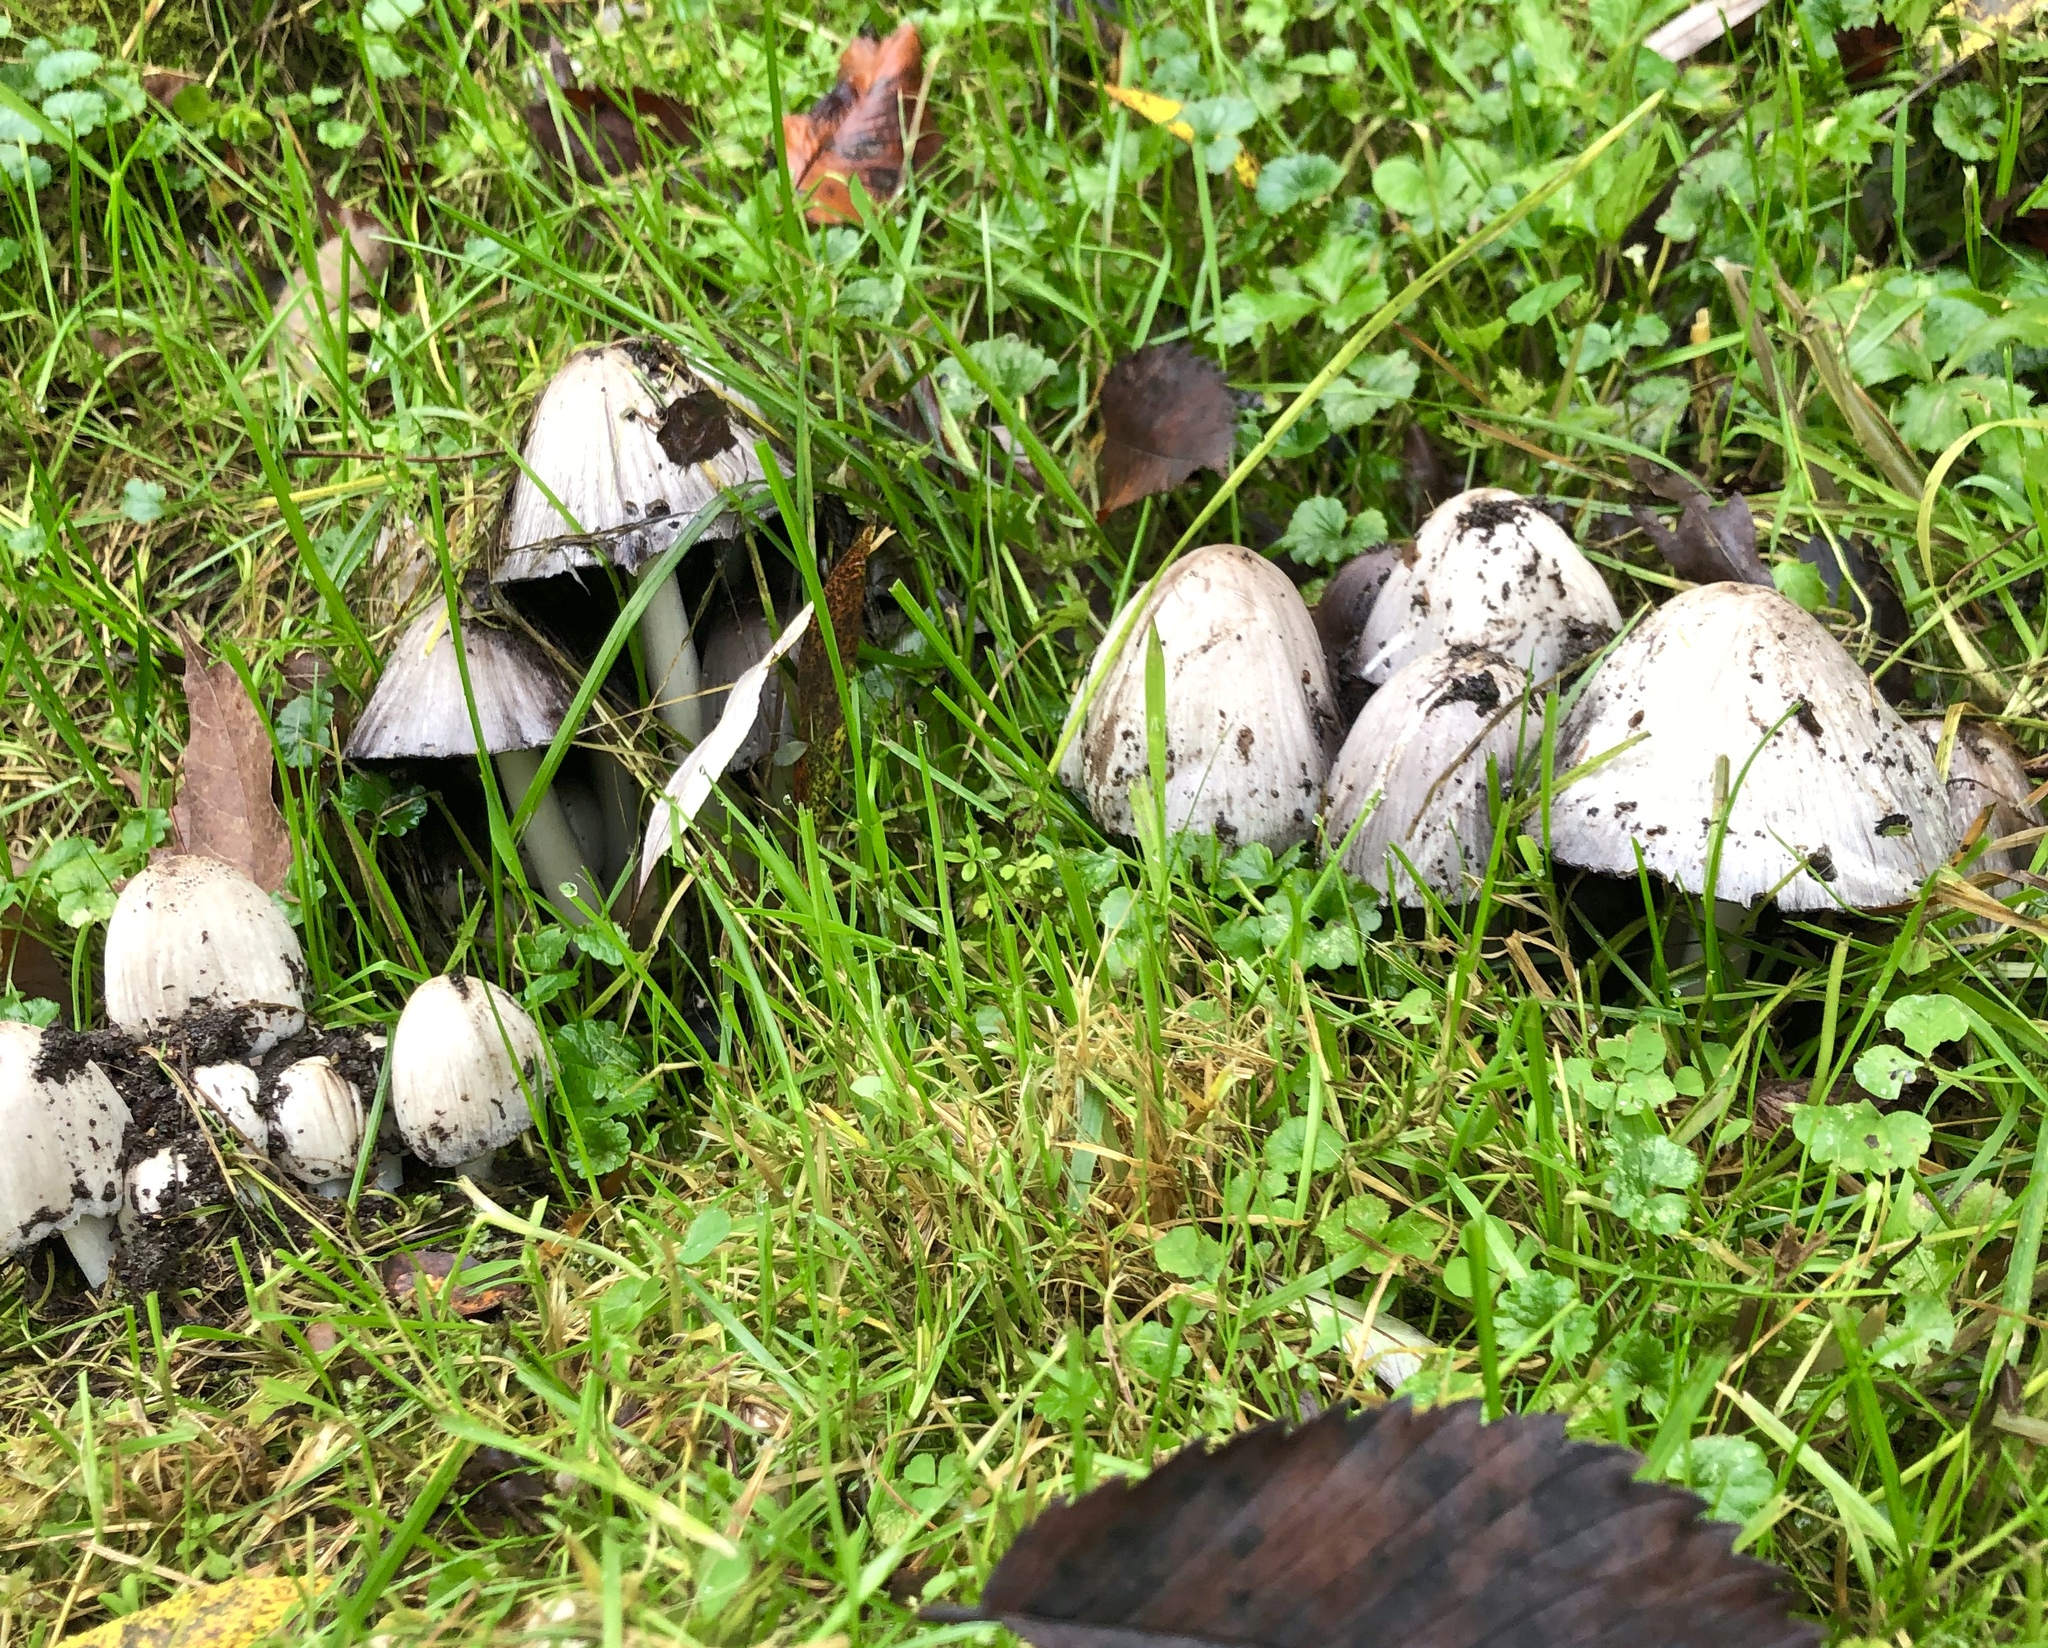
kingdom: Fungi
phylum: Basidiomycota
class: Agaricomycetes
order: Agaricales
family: Psathyrellaceae
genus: Coprinopsis
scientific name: Coprinopsis atramentaria
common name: Common ink-cap
